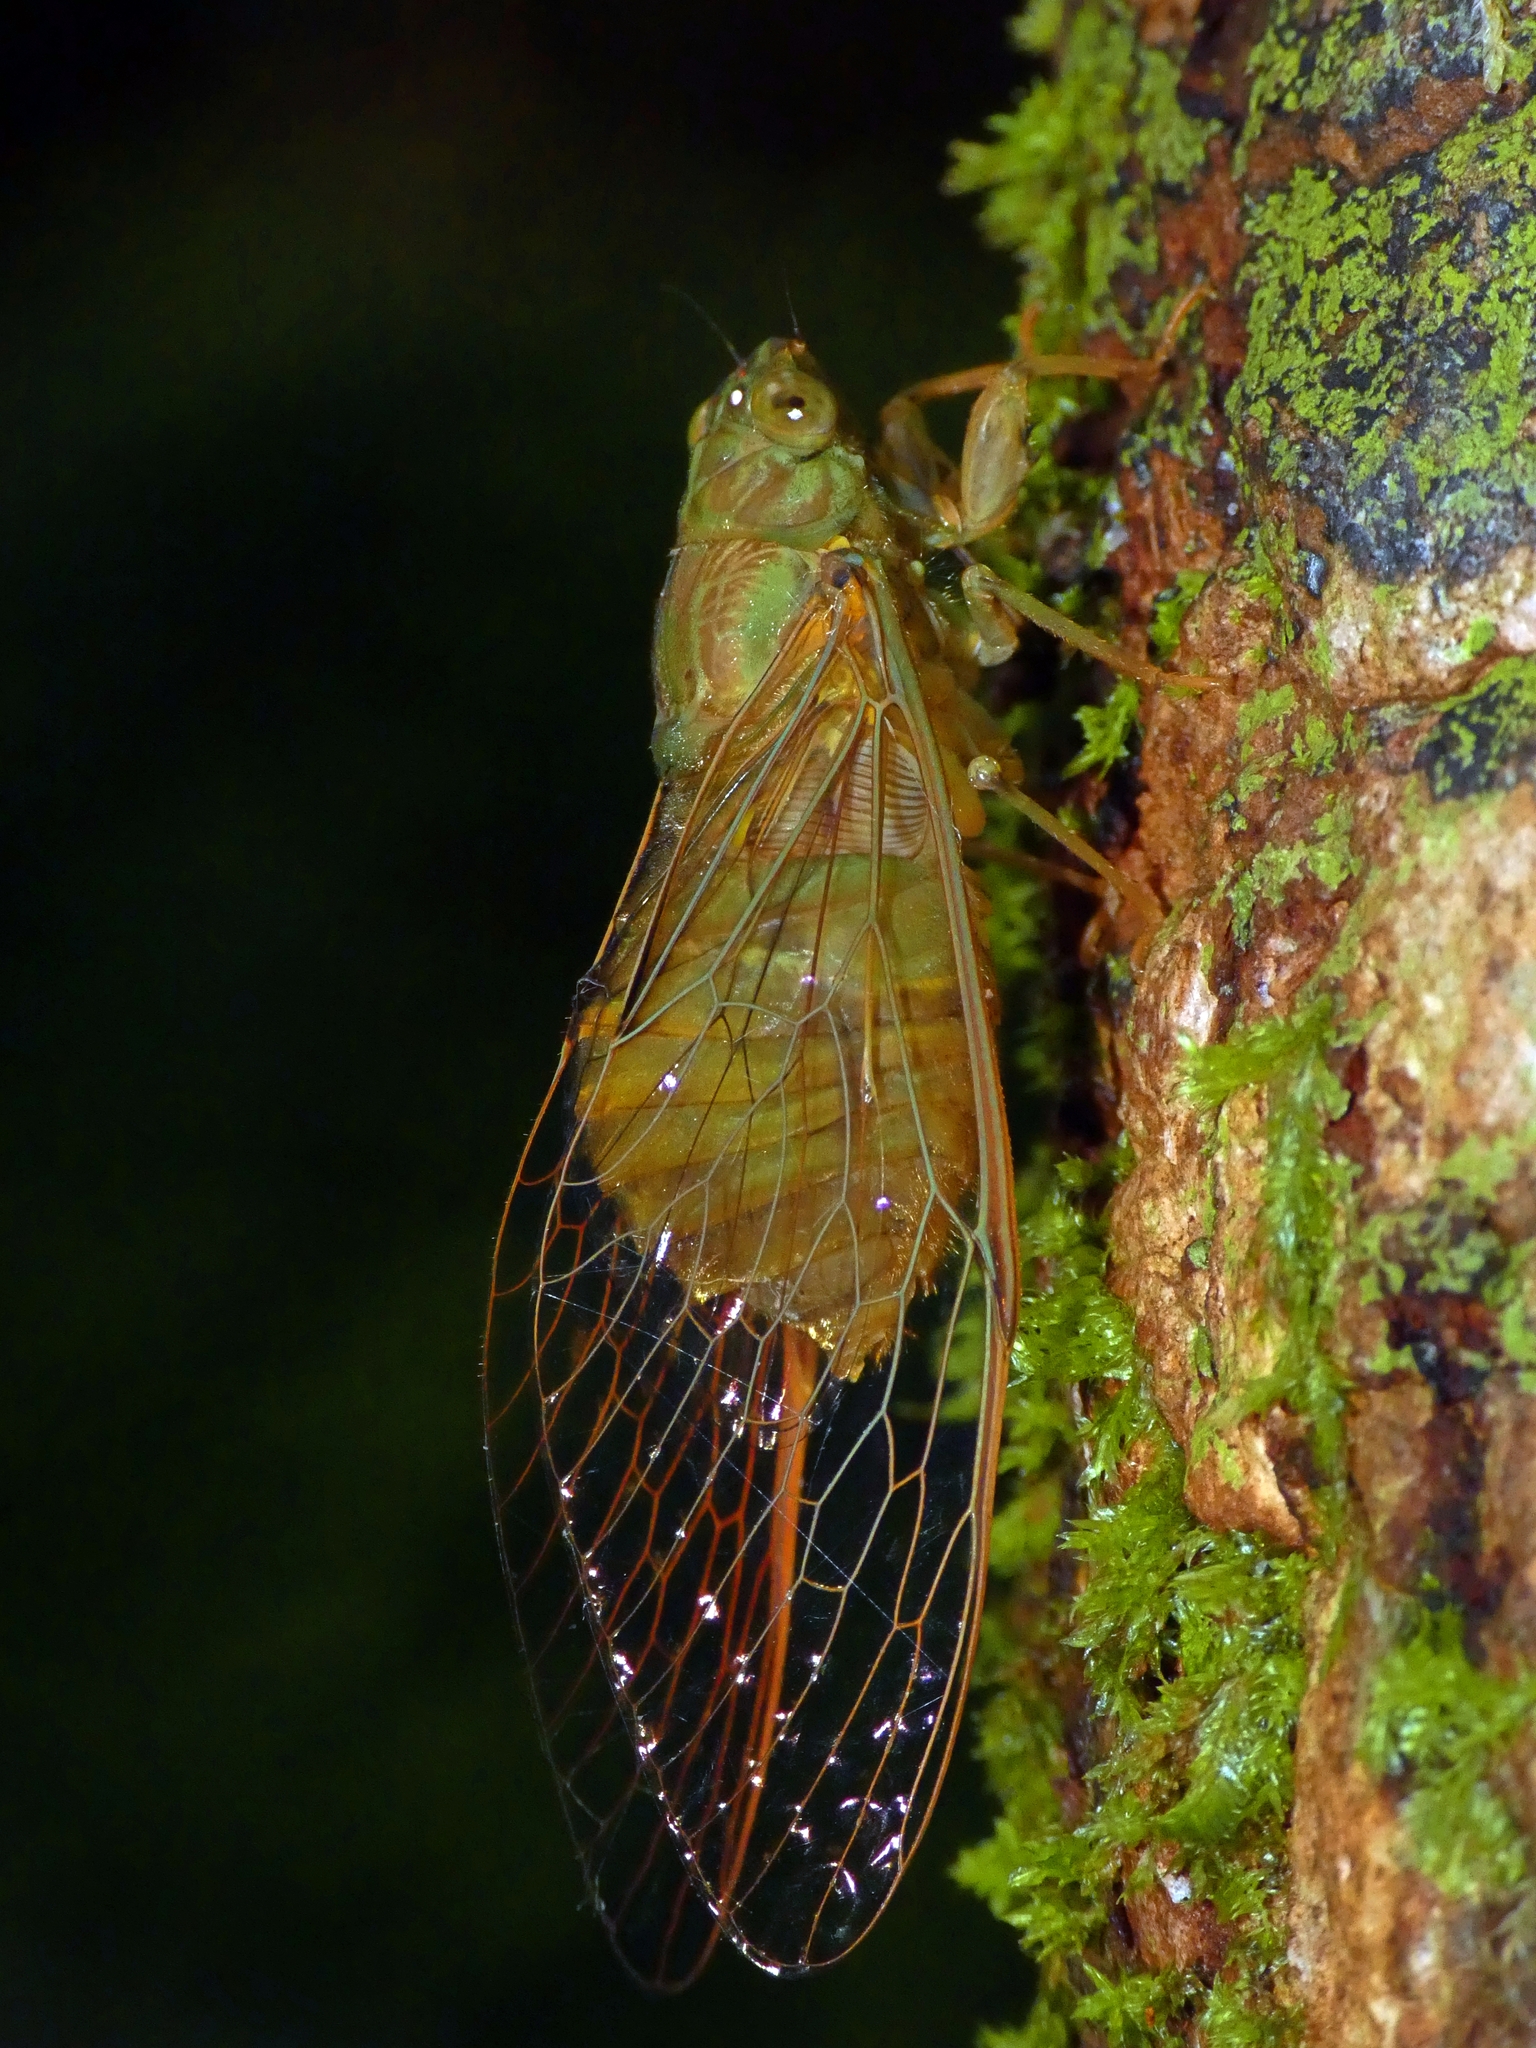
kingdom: Animalia
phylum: Arthropoda
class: Insecta
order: Hemiptera
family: Cicadidae
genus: Chlorocysta
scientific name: Chlorocysta suffusa
